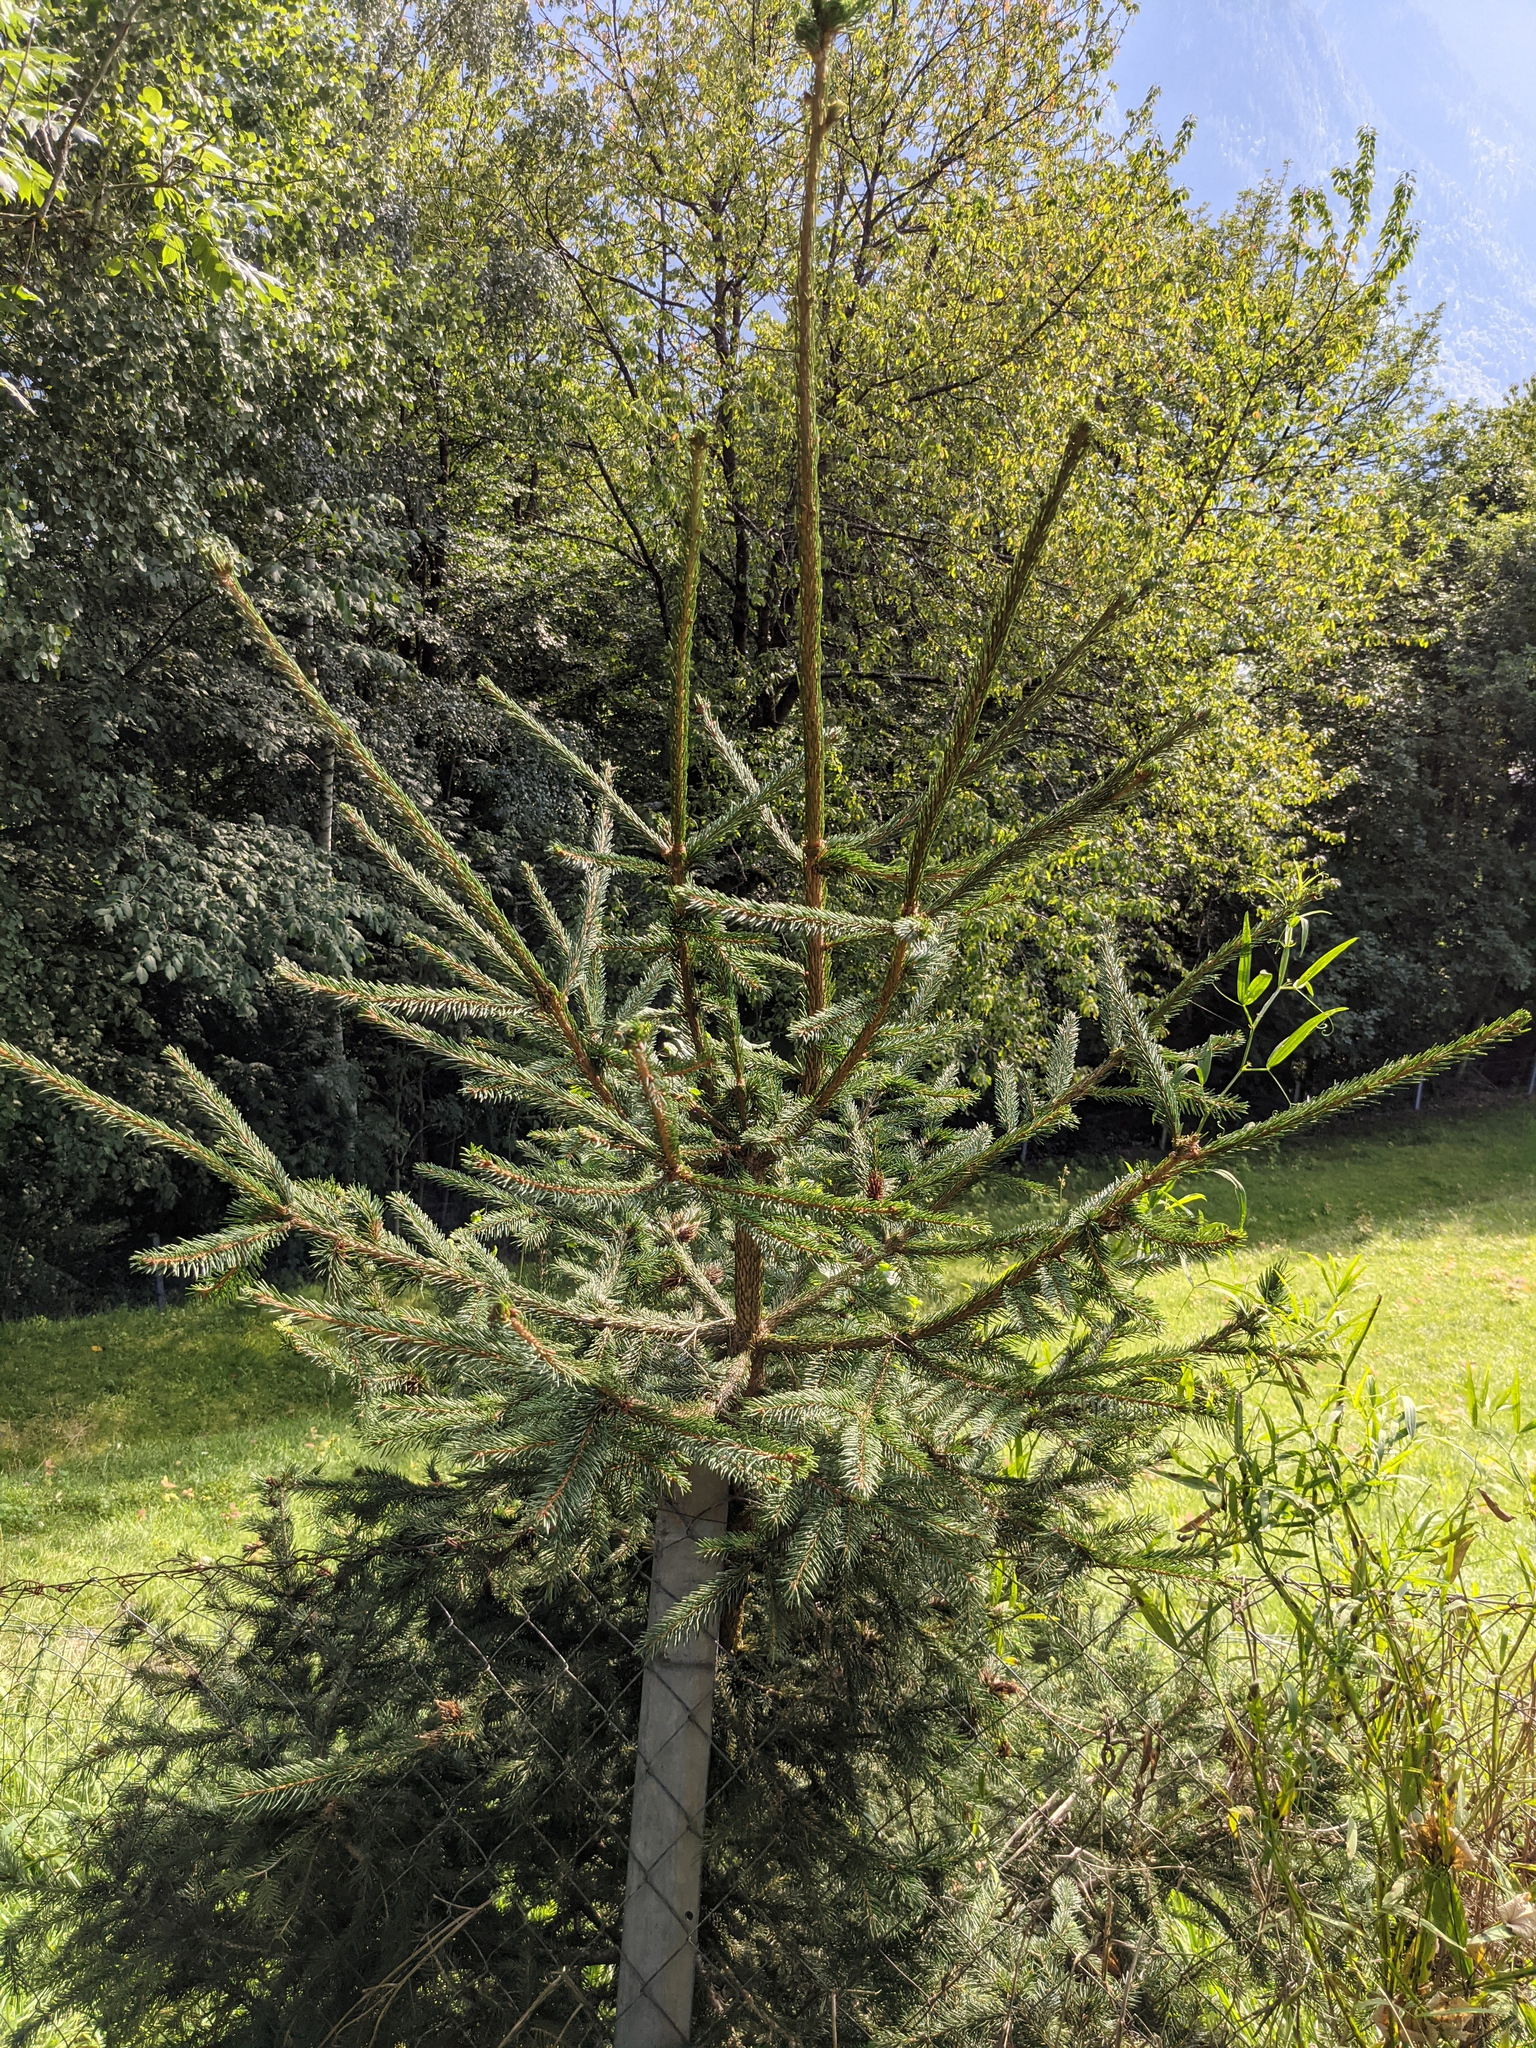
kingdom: Plantae
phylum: Tracheophyta
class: Pinopsida
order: Pinales
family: Pinaceae
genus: Picea
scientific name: Picea abies
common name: Norway spruce
